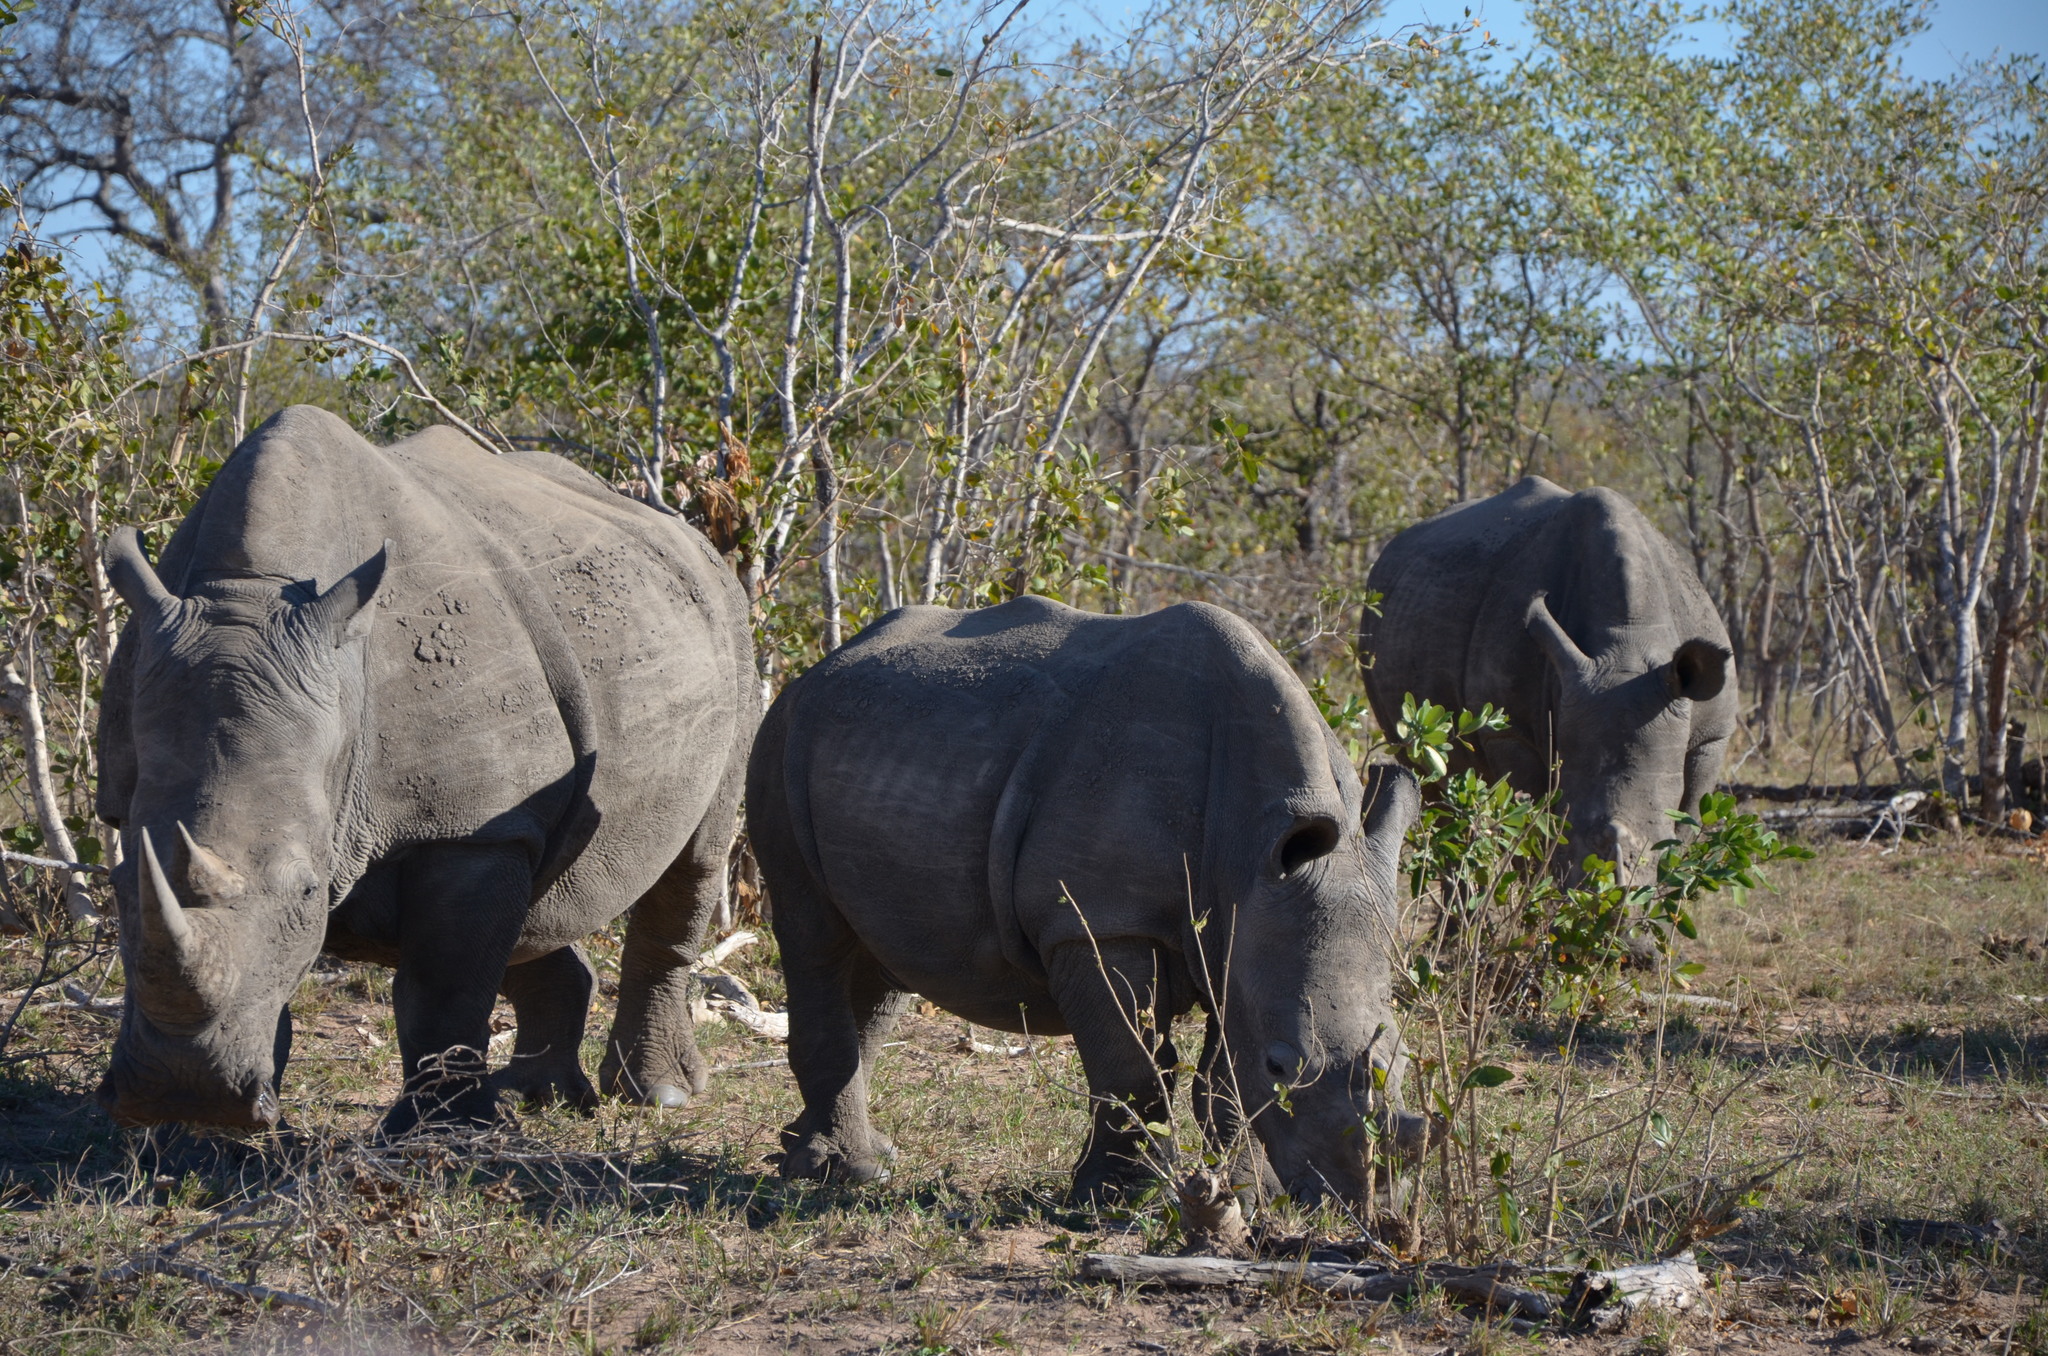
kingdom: Animalia
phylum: Chordata
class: Mammalia
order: Perissodactyla
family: Rhinocerotidae
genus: Ceratotherium
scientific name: Ceratotherium simum
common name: White rhinoceros
